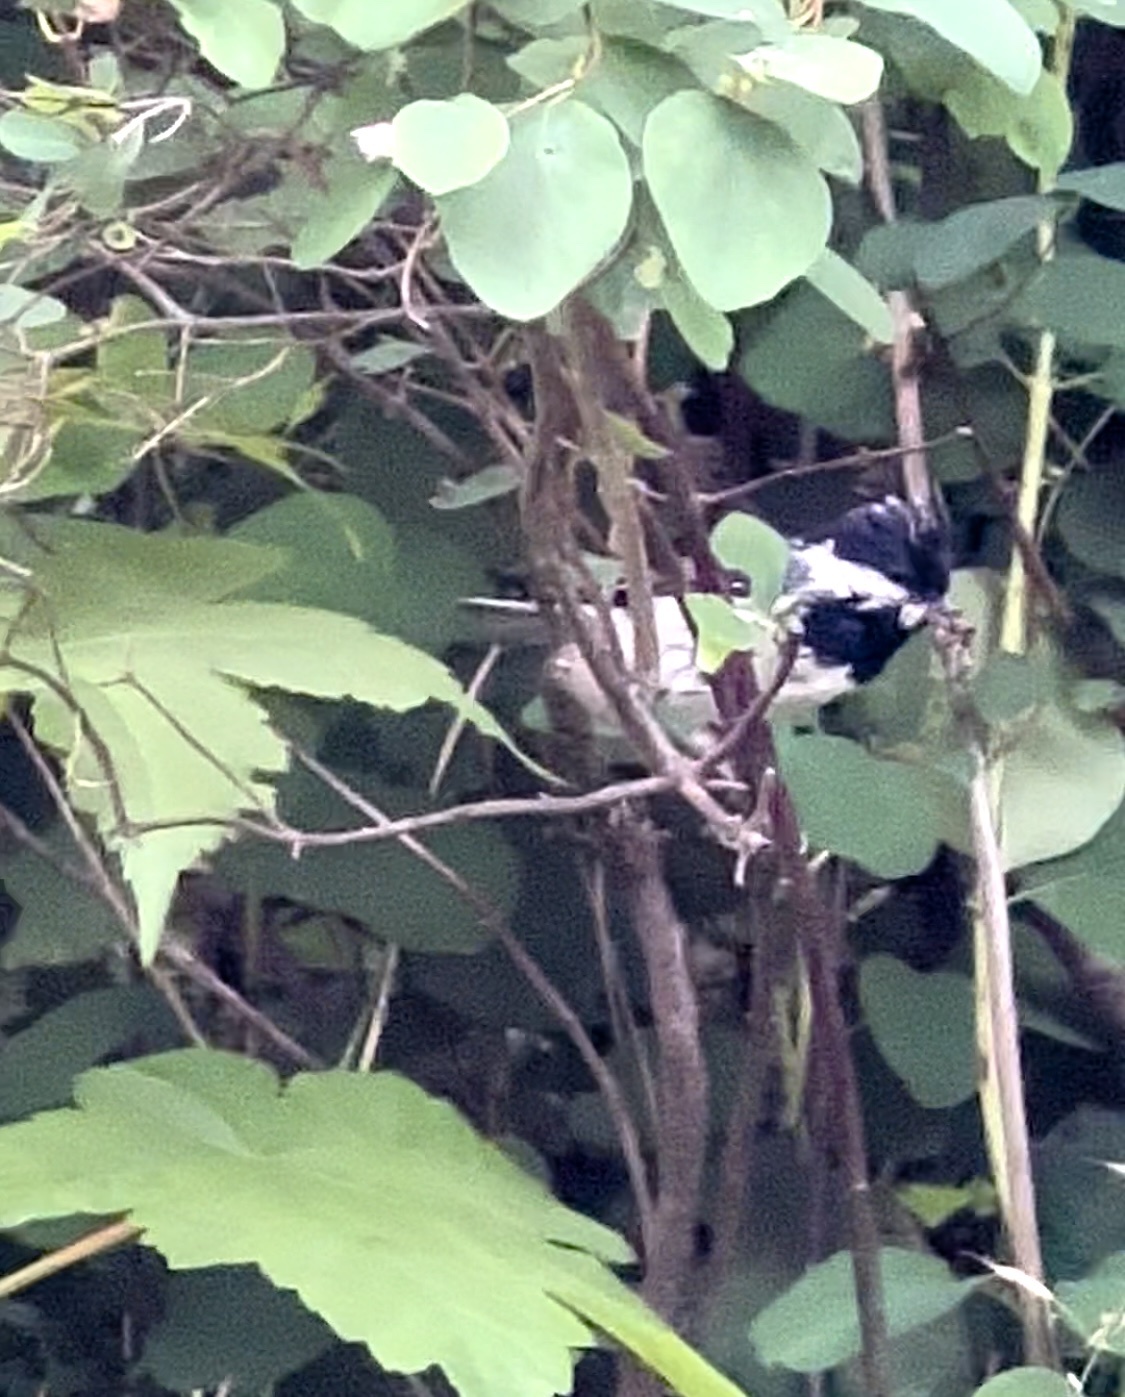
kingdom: Animalia
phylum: Chordata
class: Aves
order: Passeriformes
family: Paridae
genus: Periparus
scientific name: Periparus ater
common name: Coal tit
